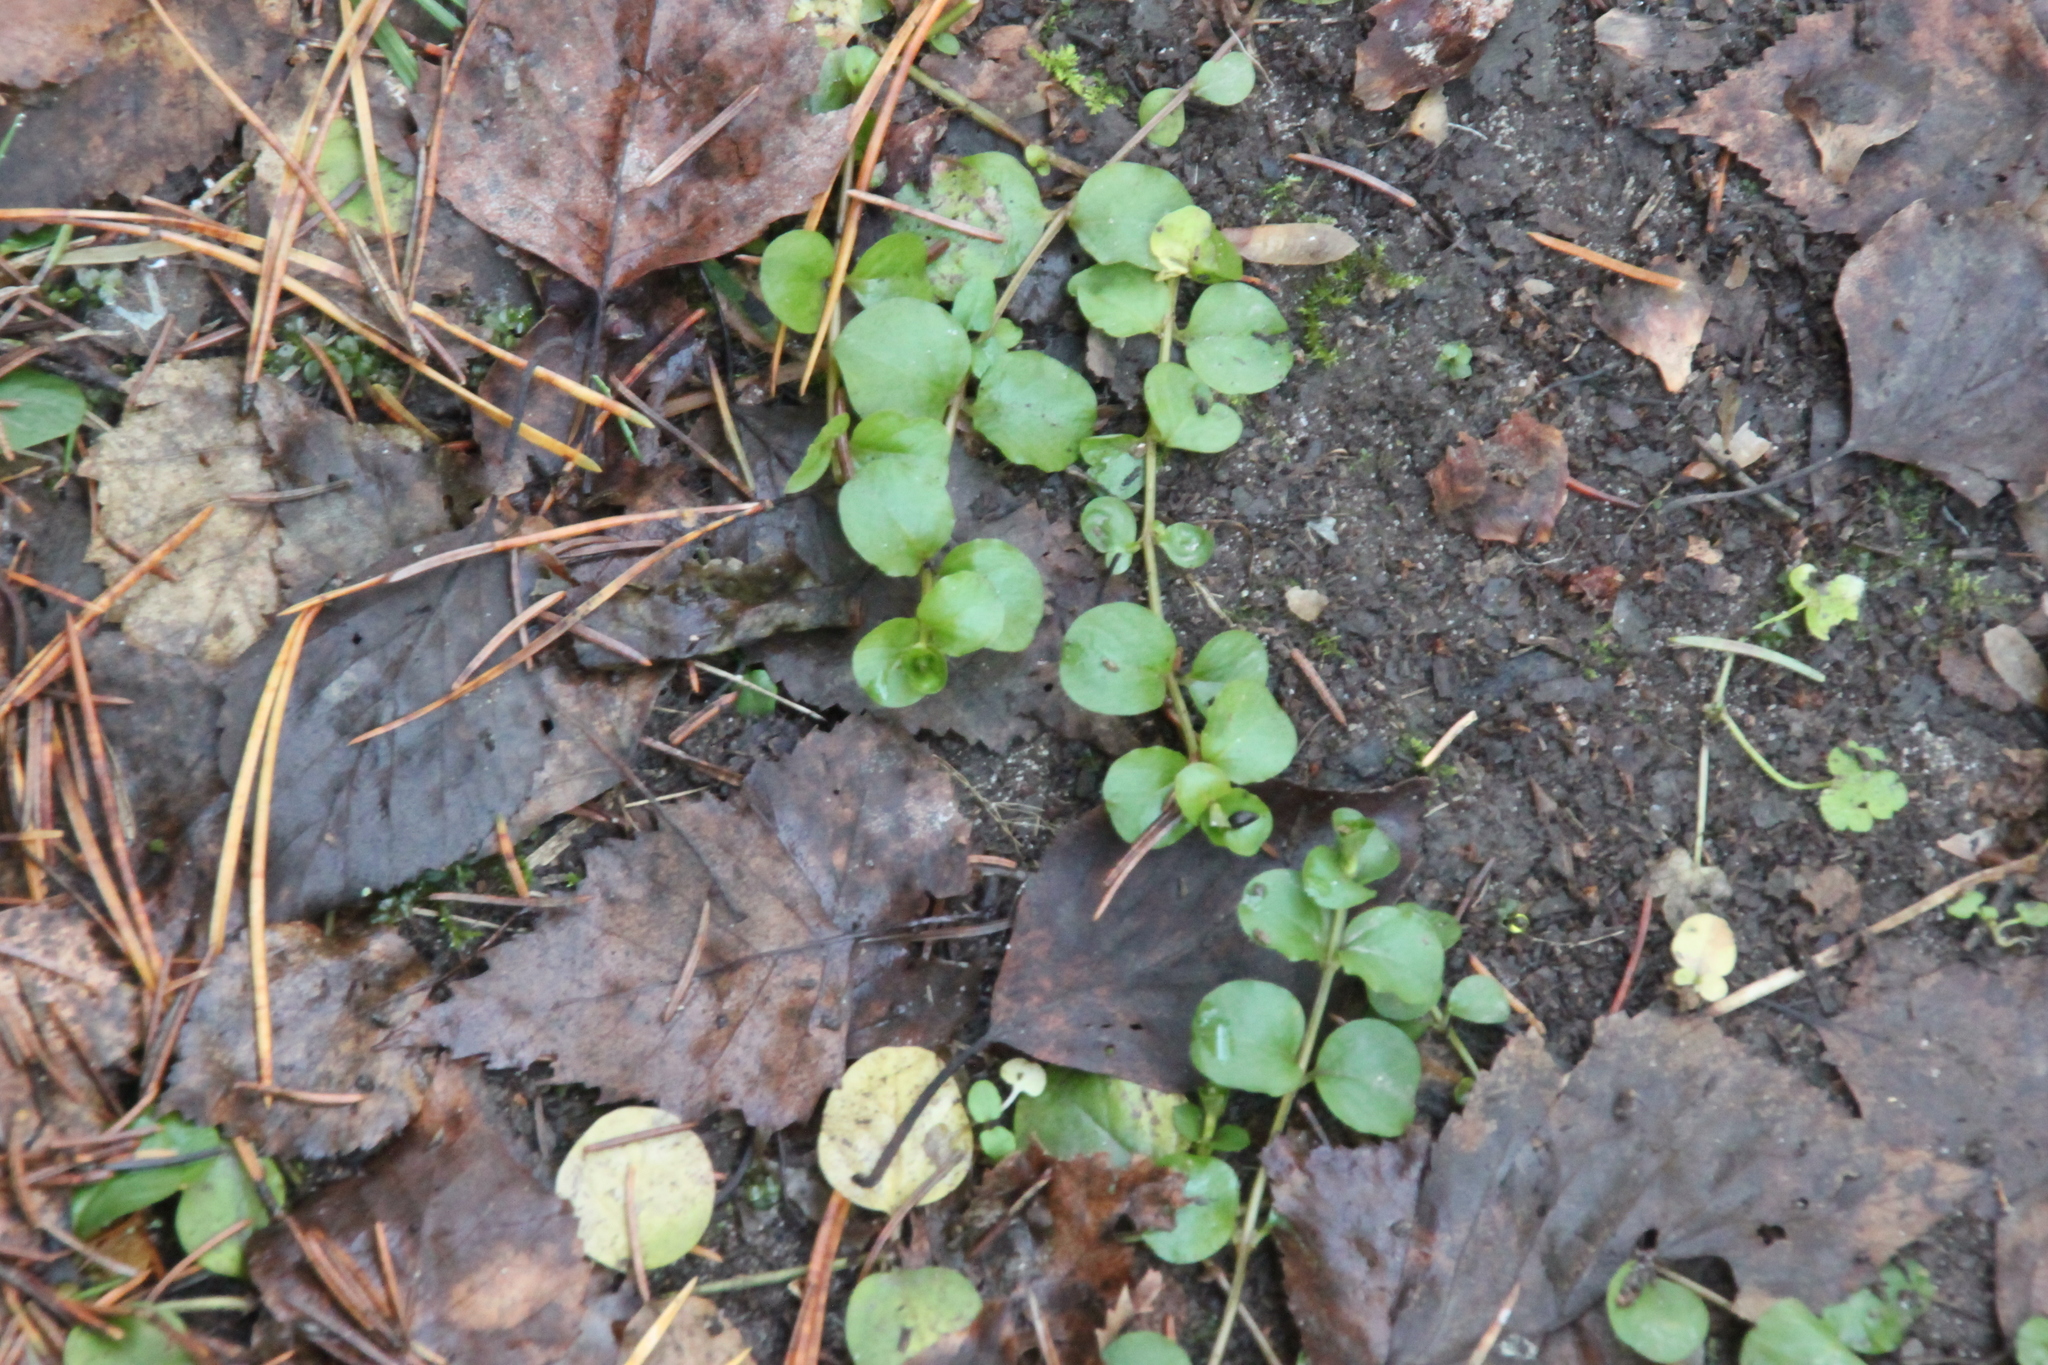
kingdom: Plantae
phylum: Tracheophyta
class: Magnoliopsida
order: Ericales
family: Primulaceae
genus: Lysimachia
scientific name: Lysimachia nummularia
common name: Moneywort
